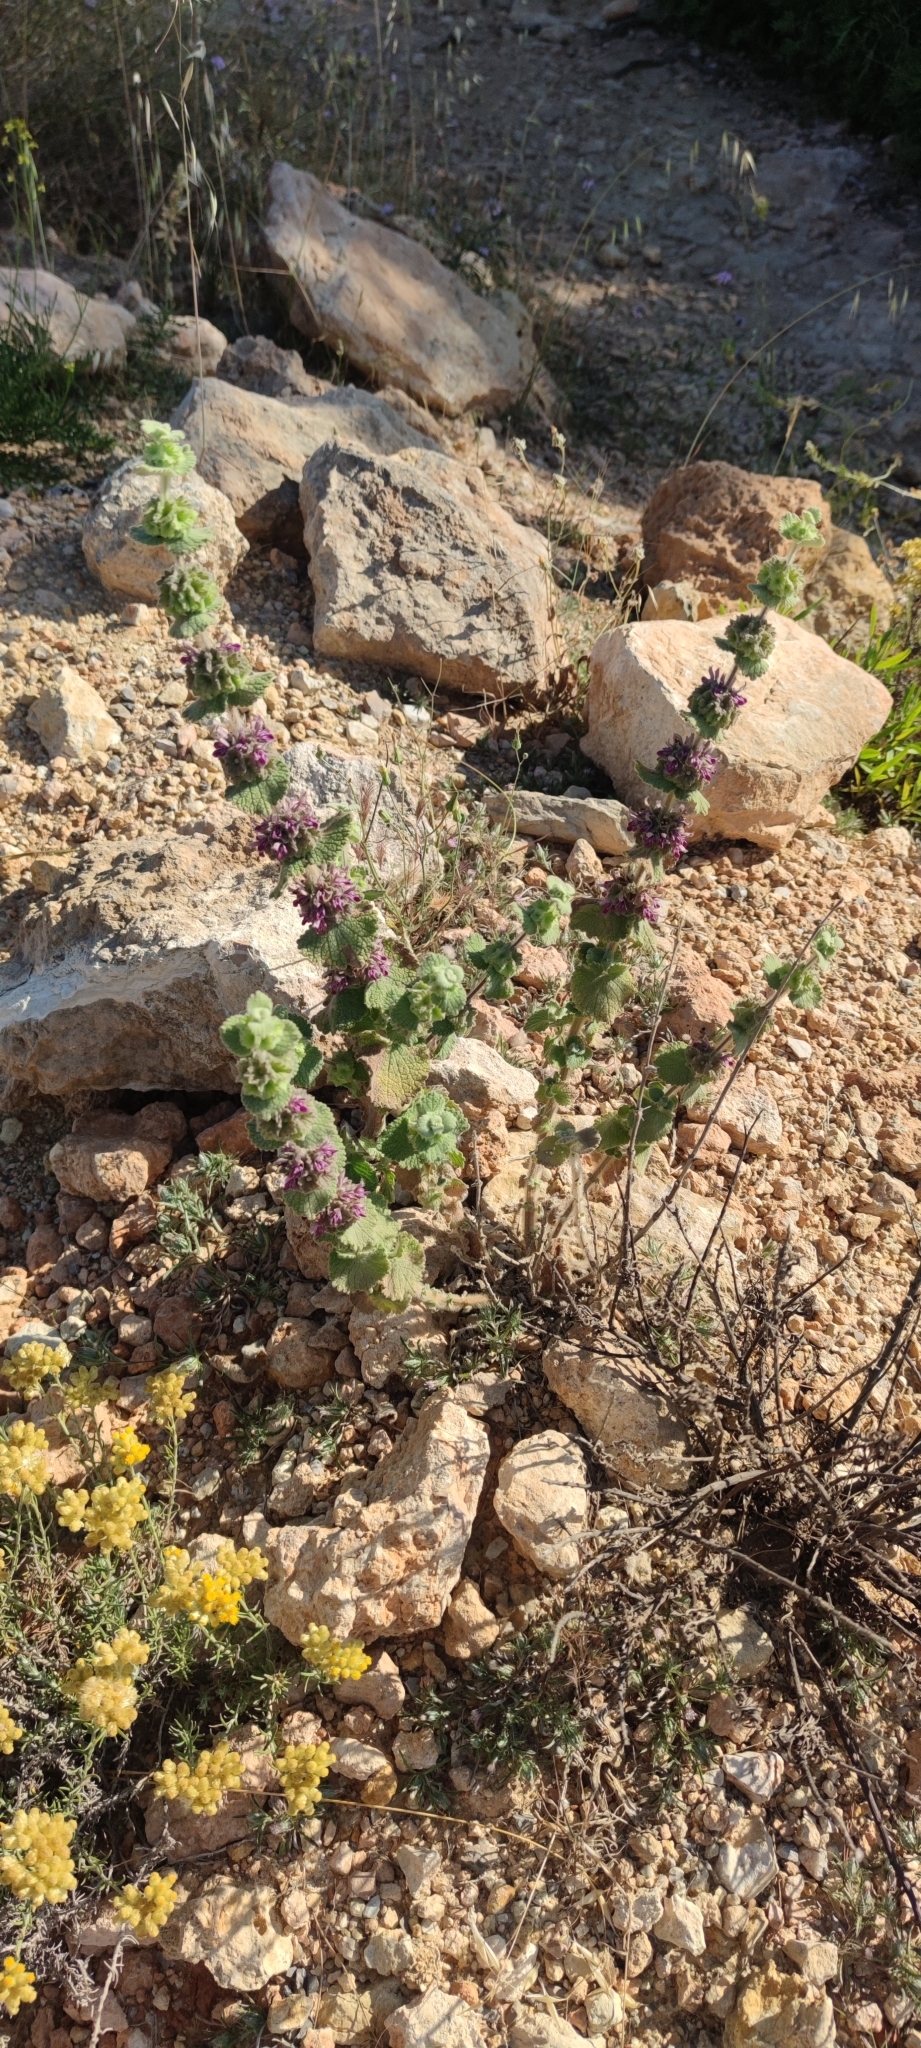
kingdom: Plantae
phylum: Tracheophyta
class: Magnoliopsida
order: Lamiales
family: Lamiaceae
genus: Pseudodictamnus
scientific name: Pseudodictamnus hirsutus
